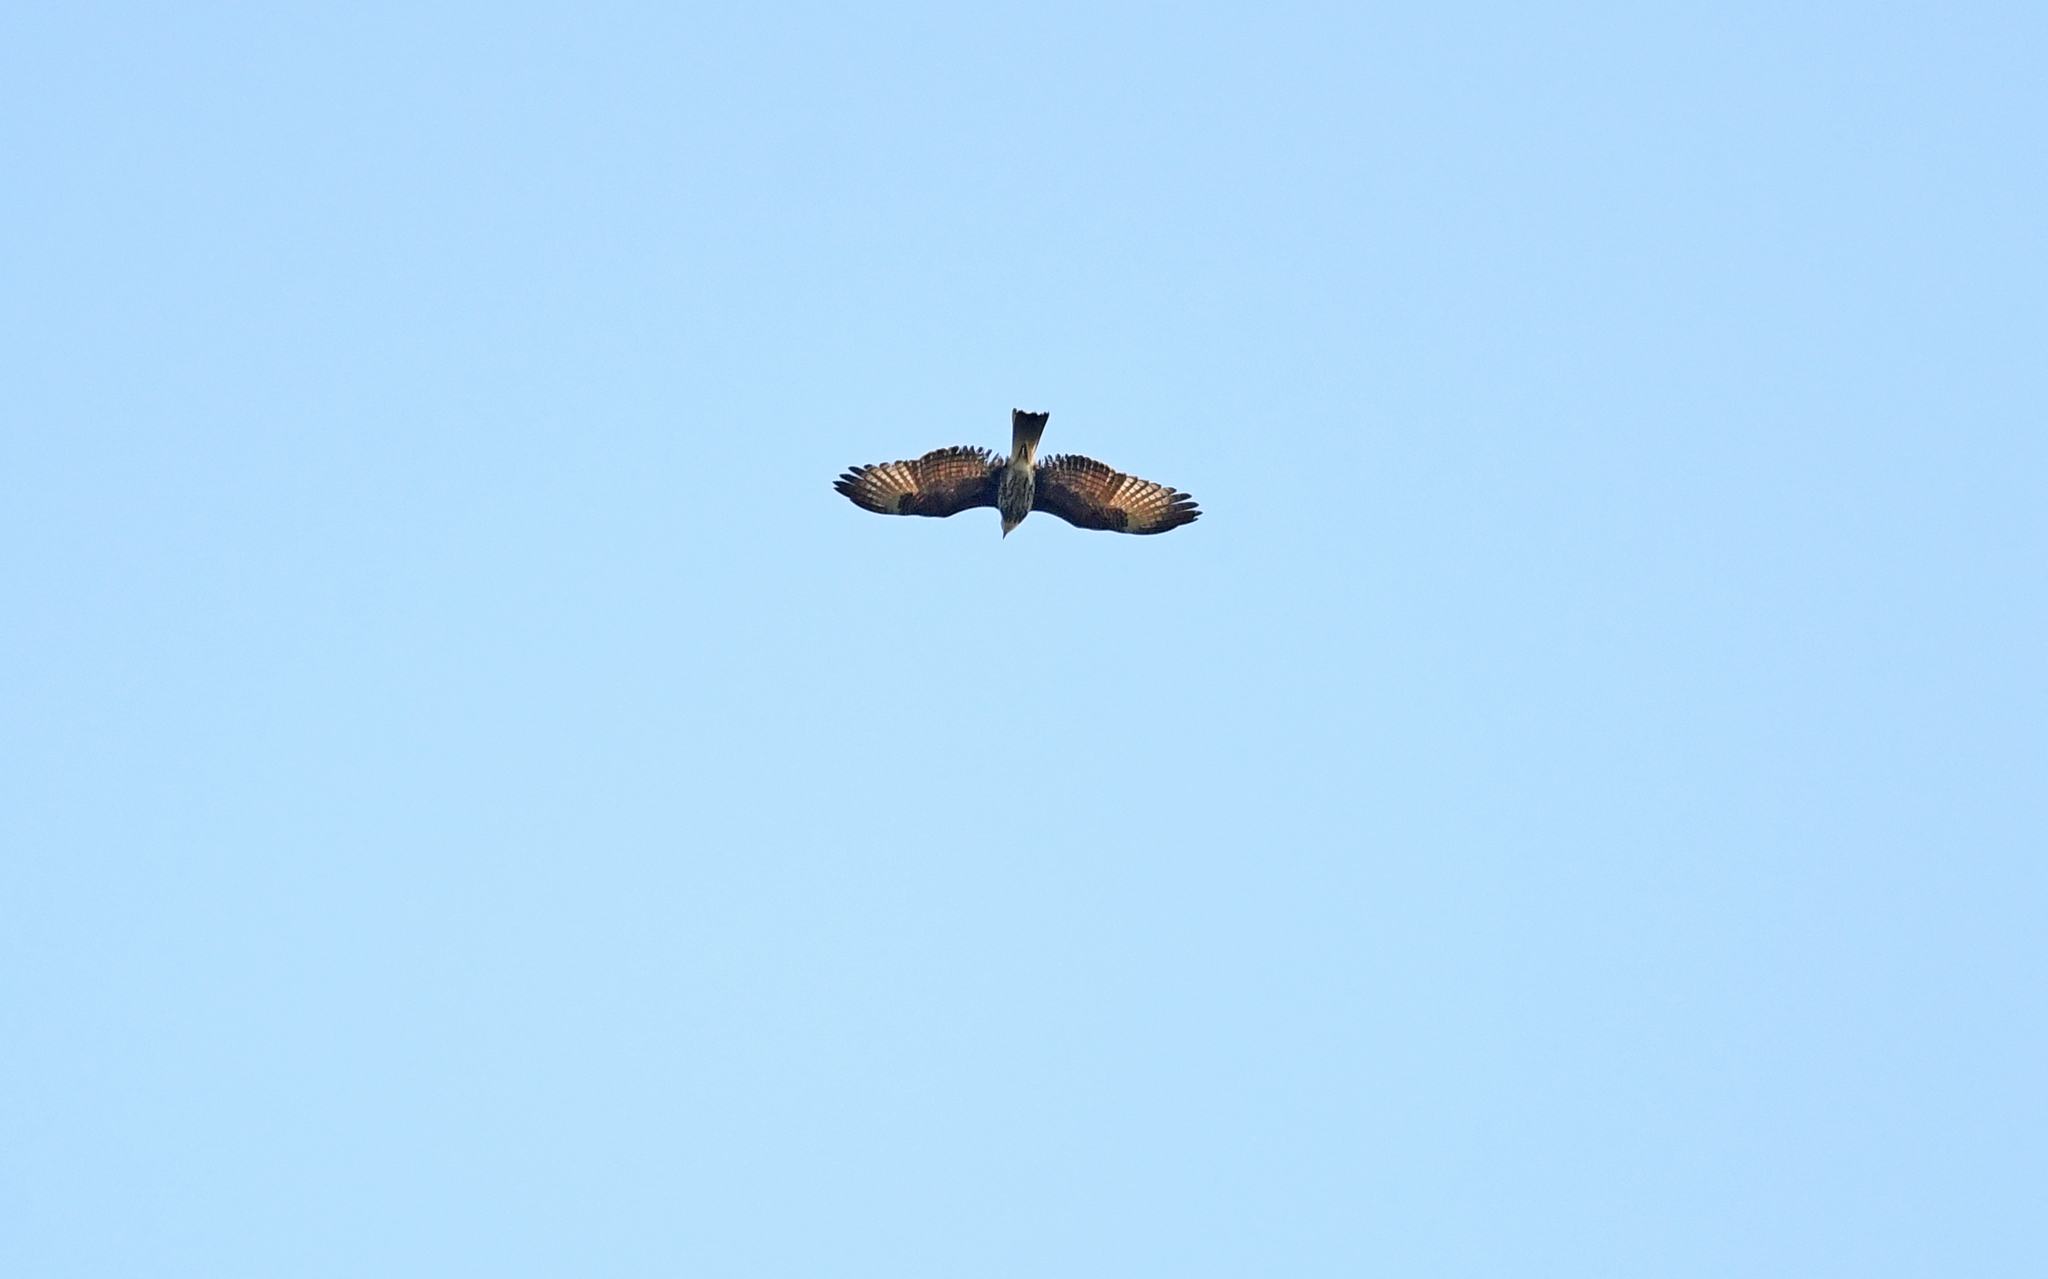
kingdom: Animalia
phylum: Chordata
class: Aves
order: Accipitriformes
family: Accipitridae
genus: Rostrhamus
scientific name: Rostrhamus sociabilis
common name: Snail kite
